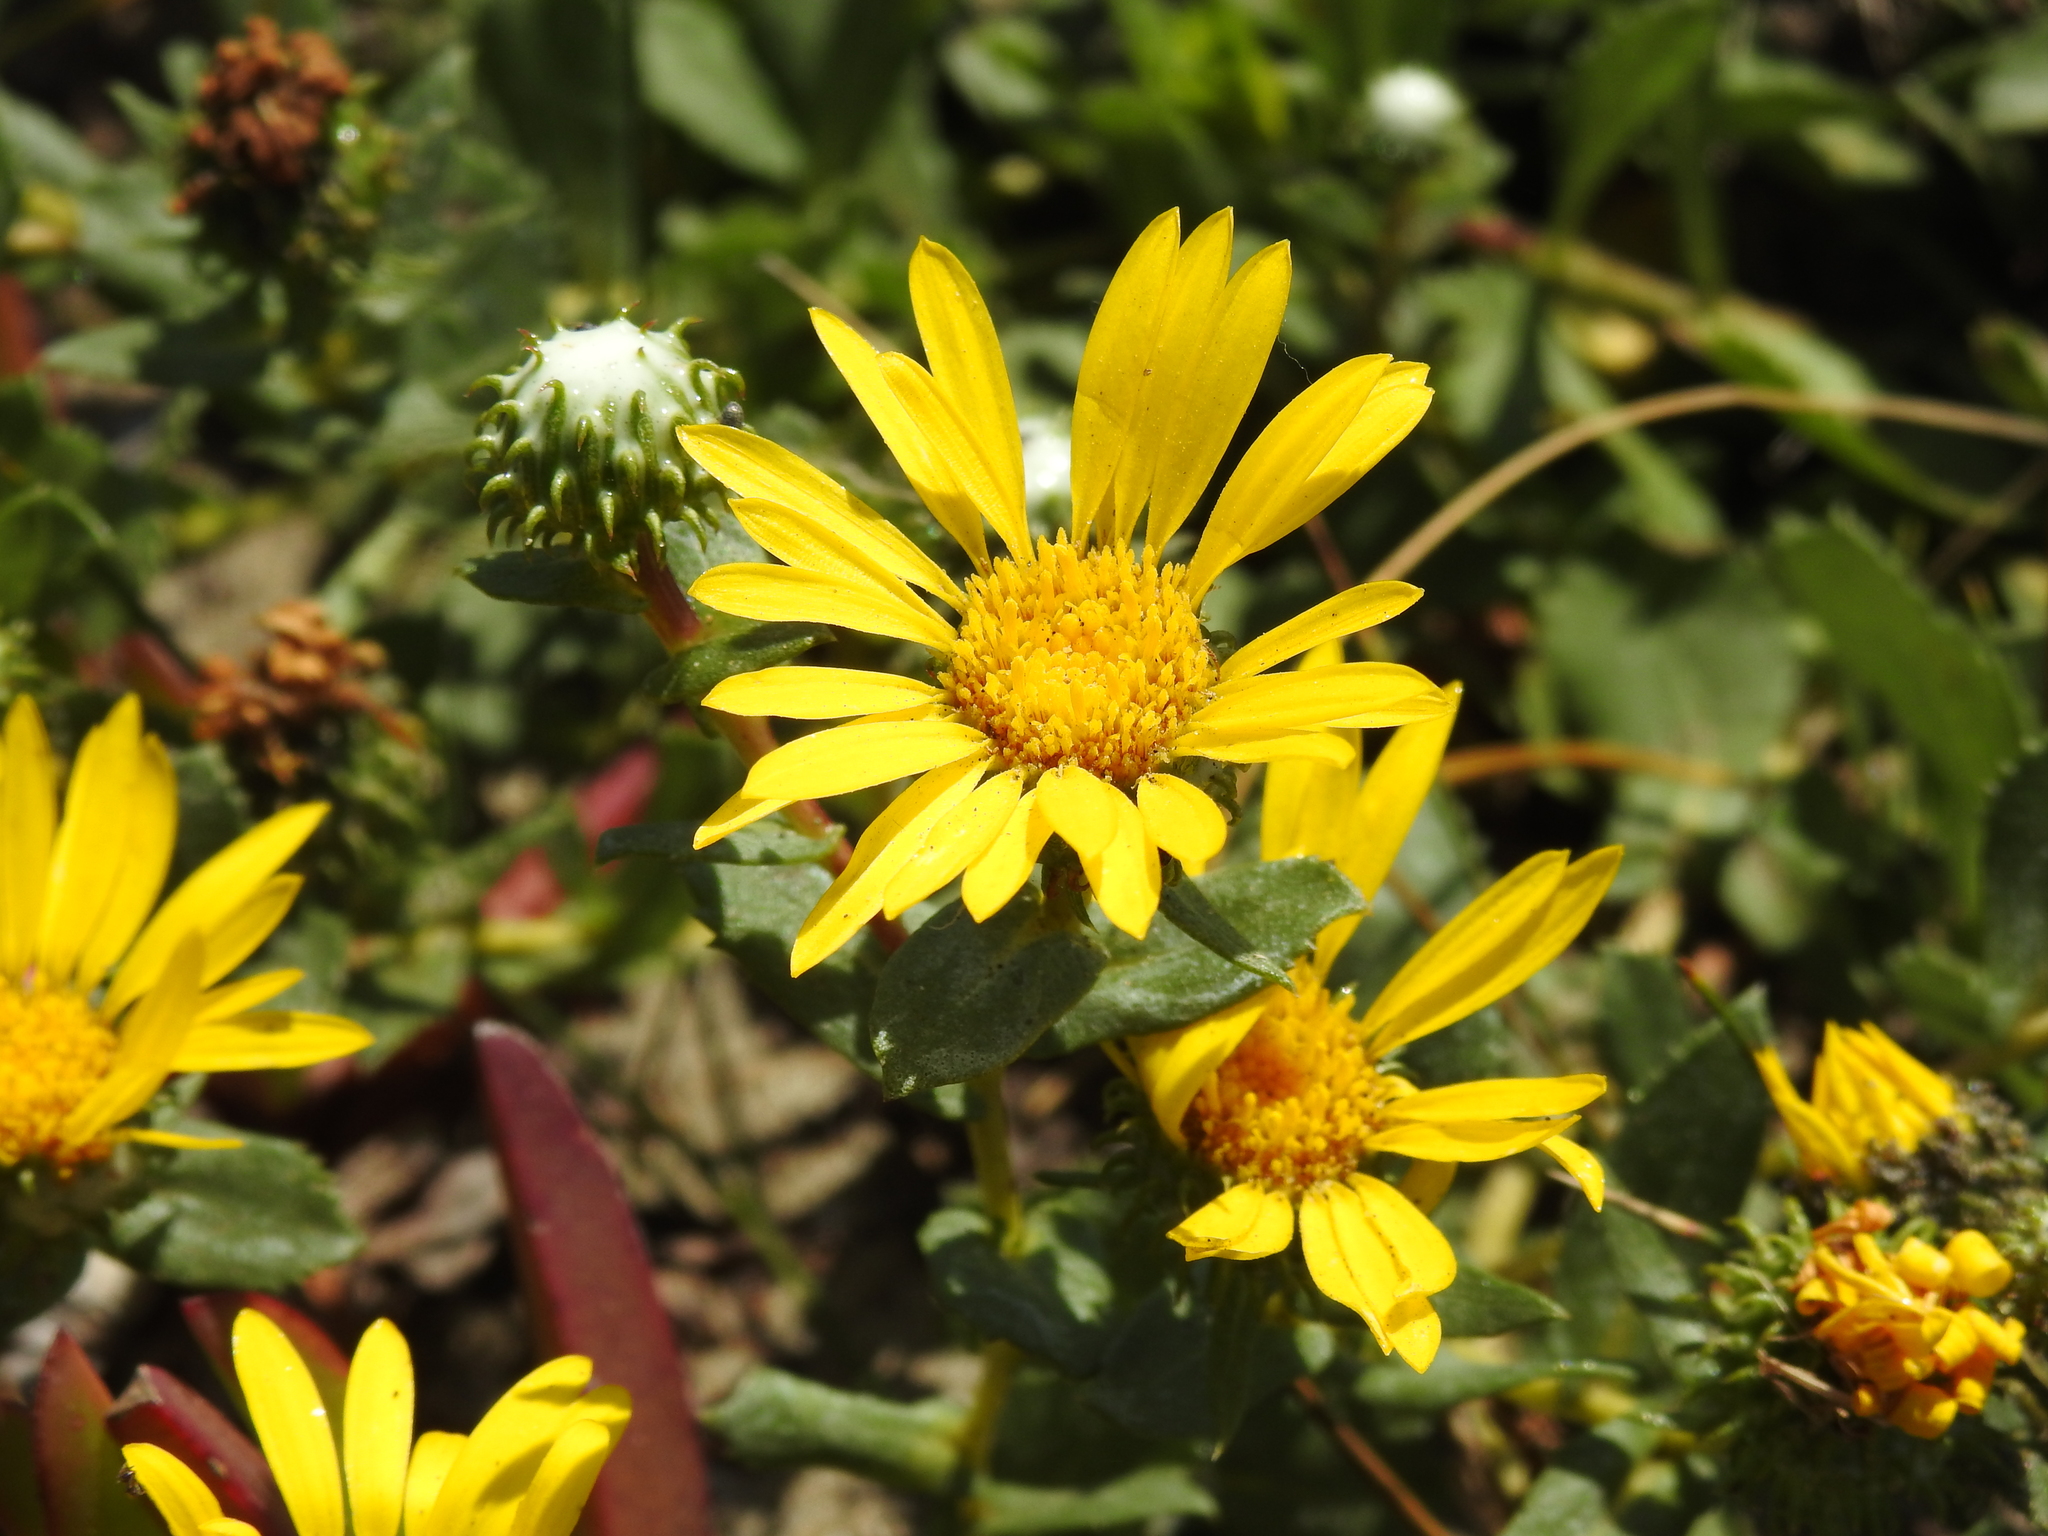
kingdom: Plantae
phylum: Tracheophyta
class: Magnoliopsida
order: Asterales
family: Asteraceae
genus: Grindelia
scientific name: Grindelia hirsutula
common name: Hairy gumweed
